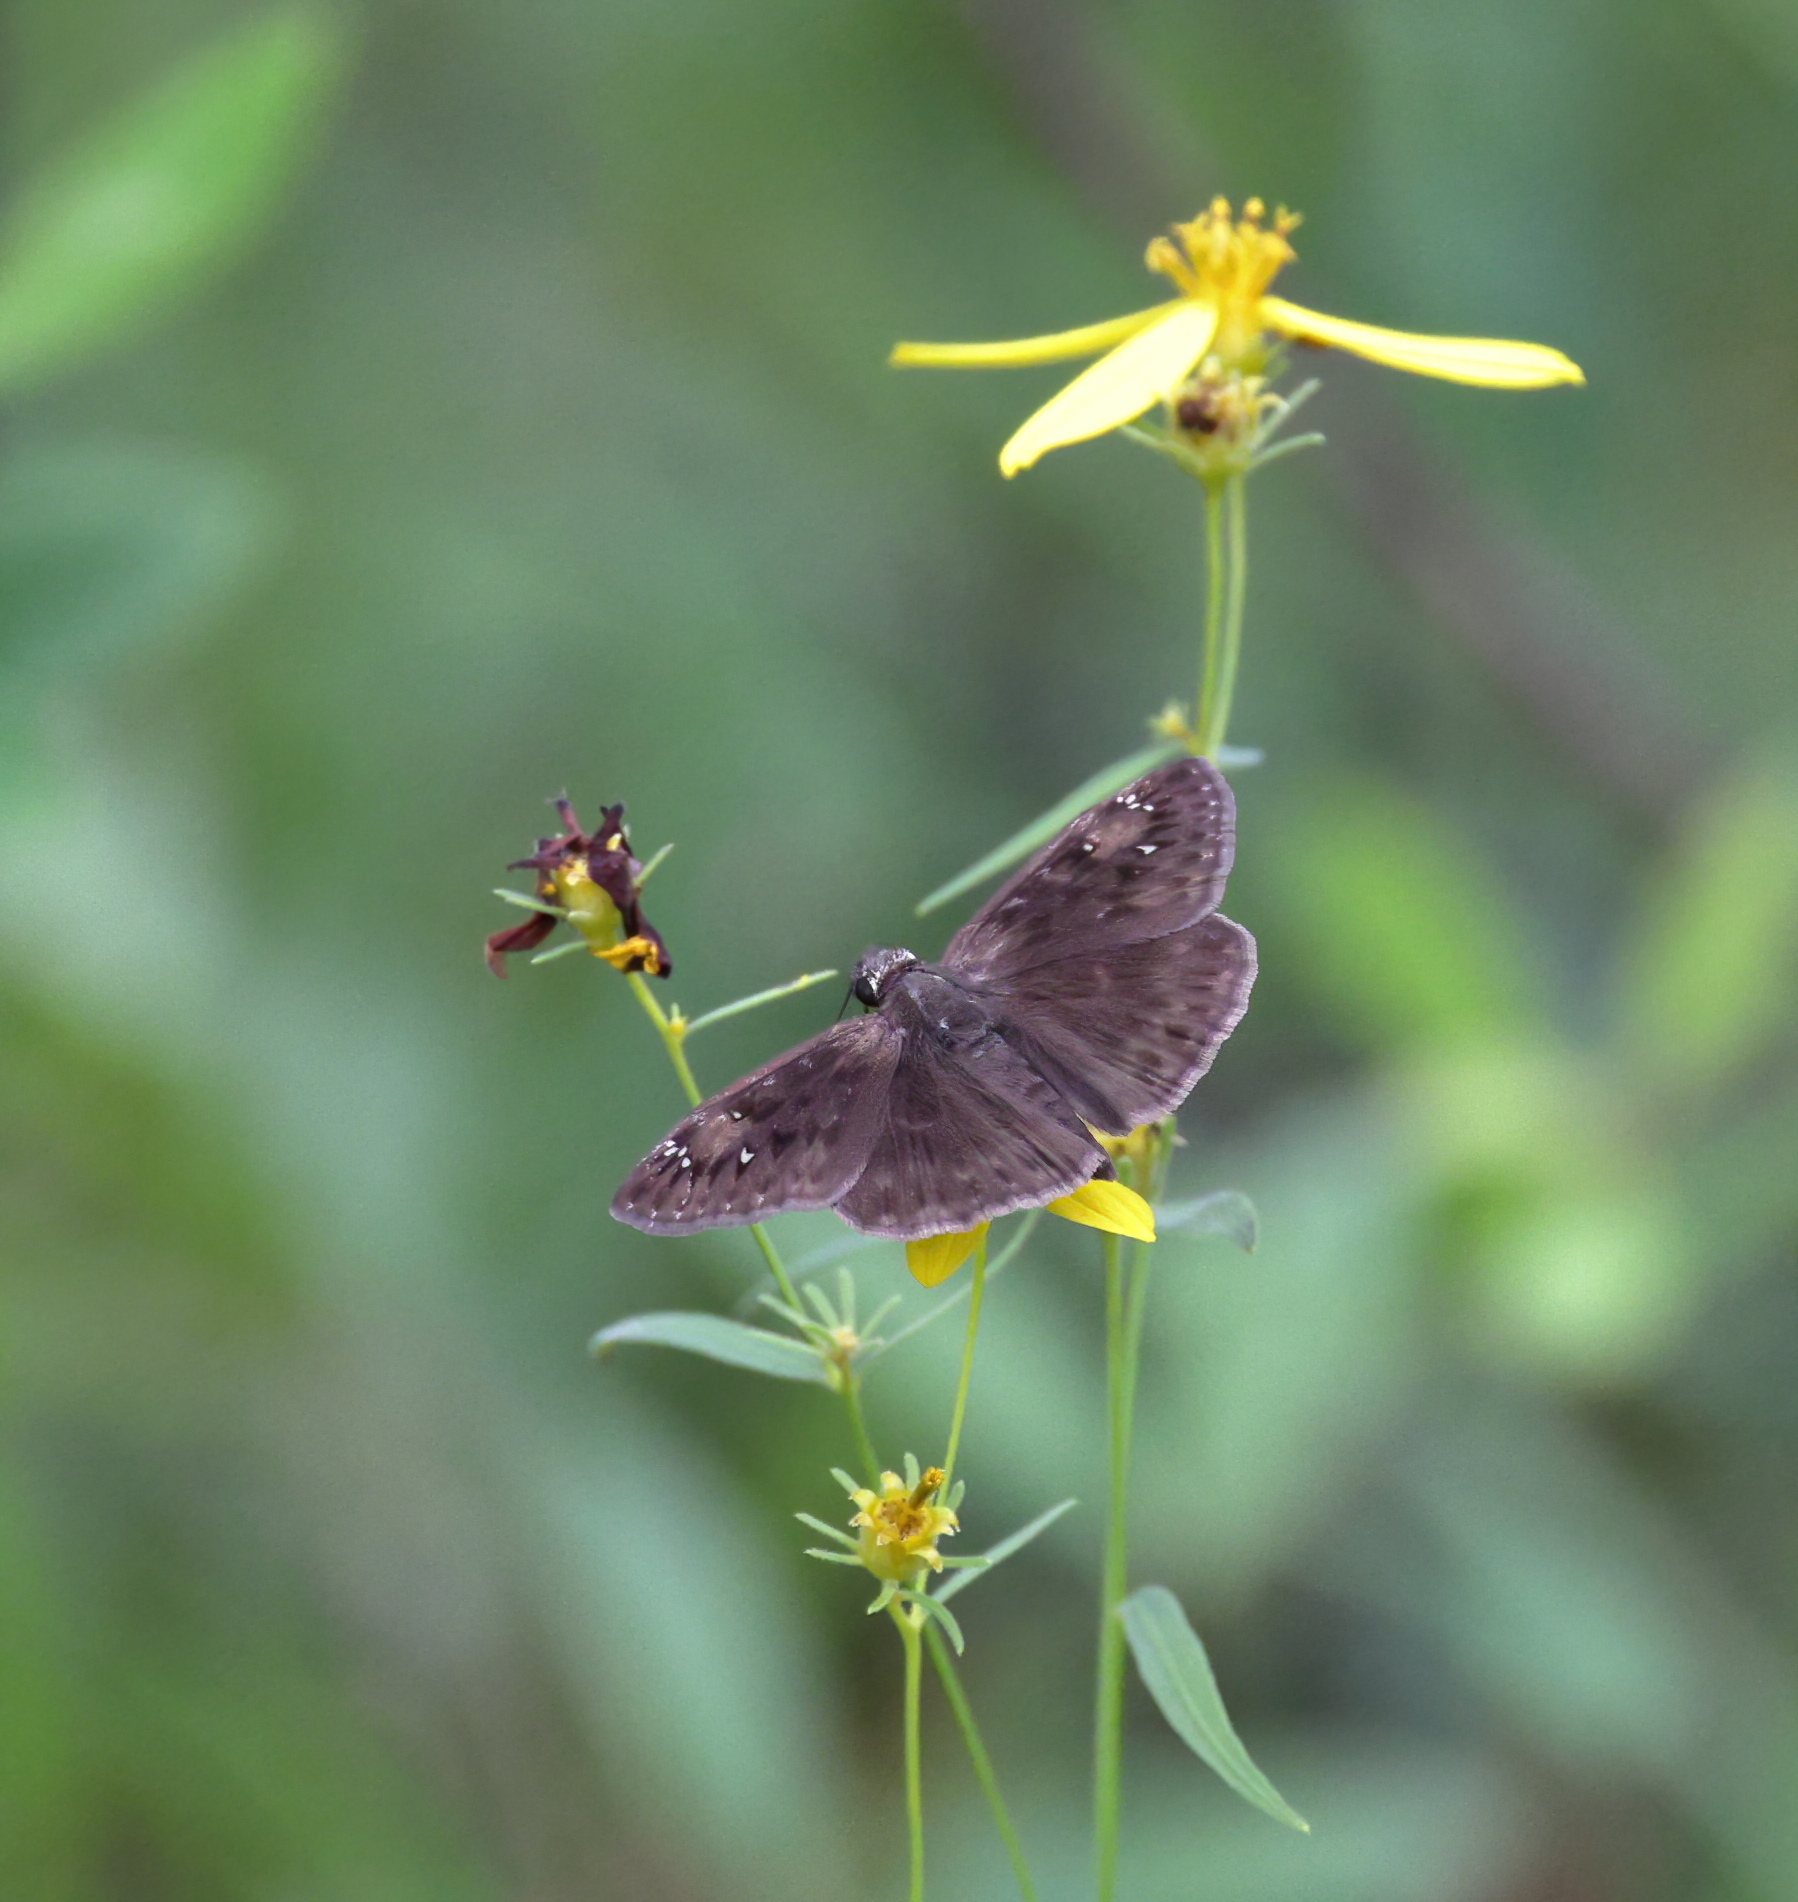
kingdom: Animalia
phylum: Arthropoda
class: Insecta
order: Lepidoptera
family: Hesperiidae
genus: Erynnis
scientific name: Erynnis zarucco
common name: Zarucco duskywing
